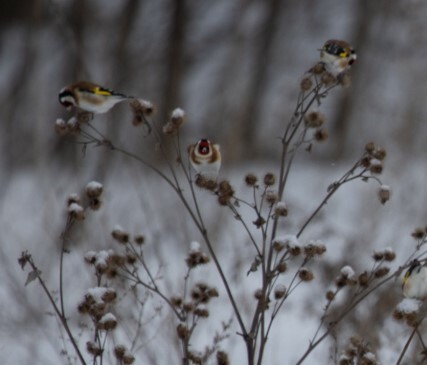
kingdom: Animalia
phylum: Chordata
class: Aves
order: Passeriformes
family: Fringillidae
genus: Carduelis
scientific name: Carduelis carduelis
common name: European goldfinch
